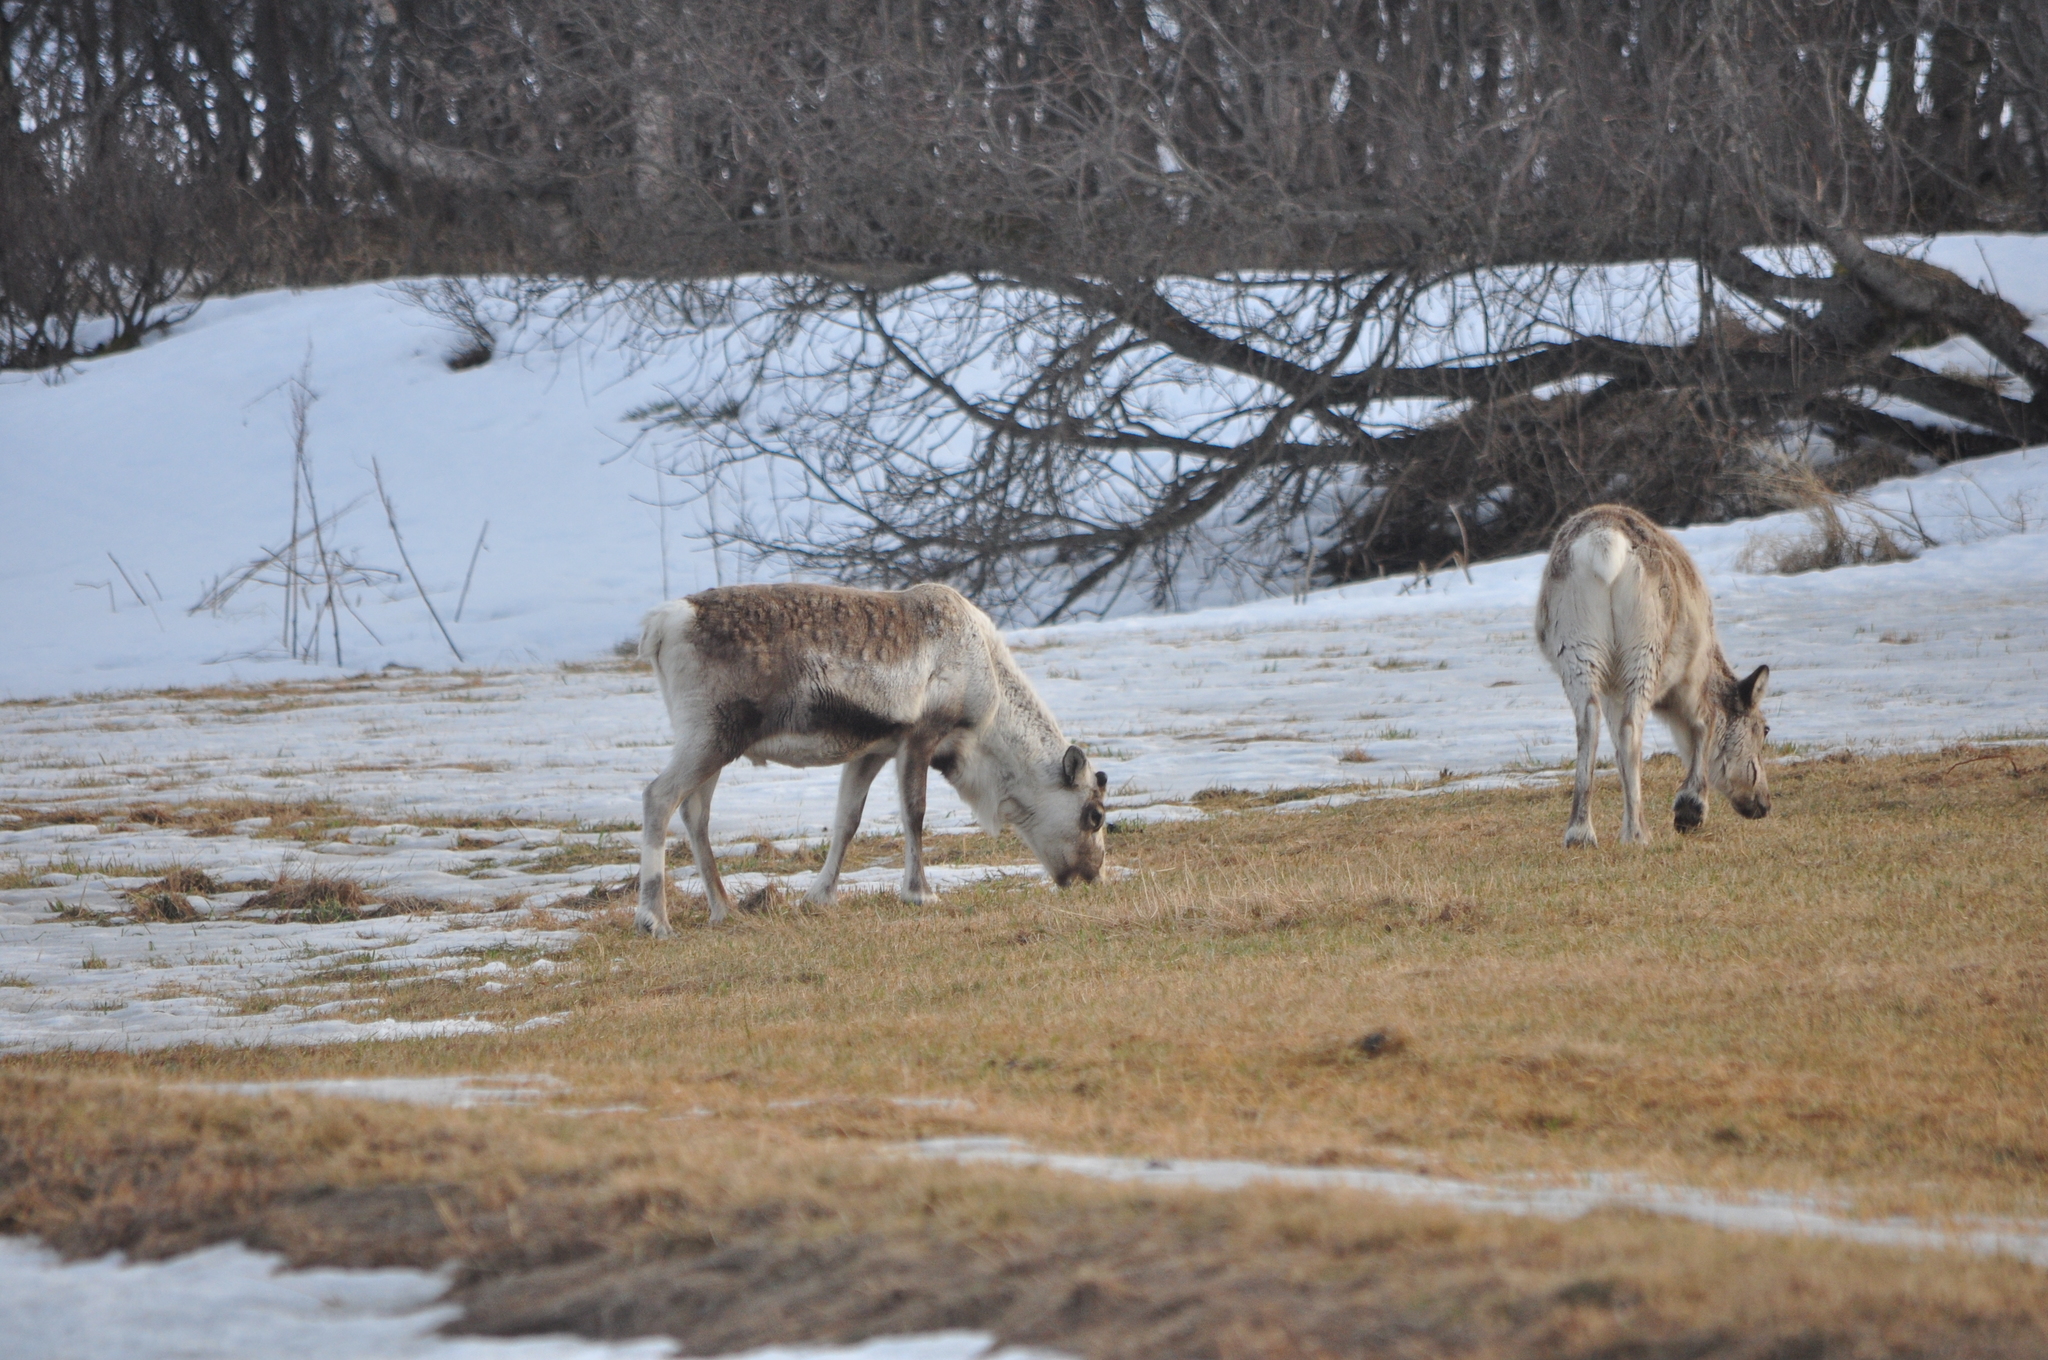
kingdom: Animalia
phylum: Chordata
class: Mammalia
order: Artiodactyla
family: Cervidae
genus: Rangifer
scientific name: Rangifer tarandus
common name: Reindeer
